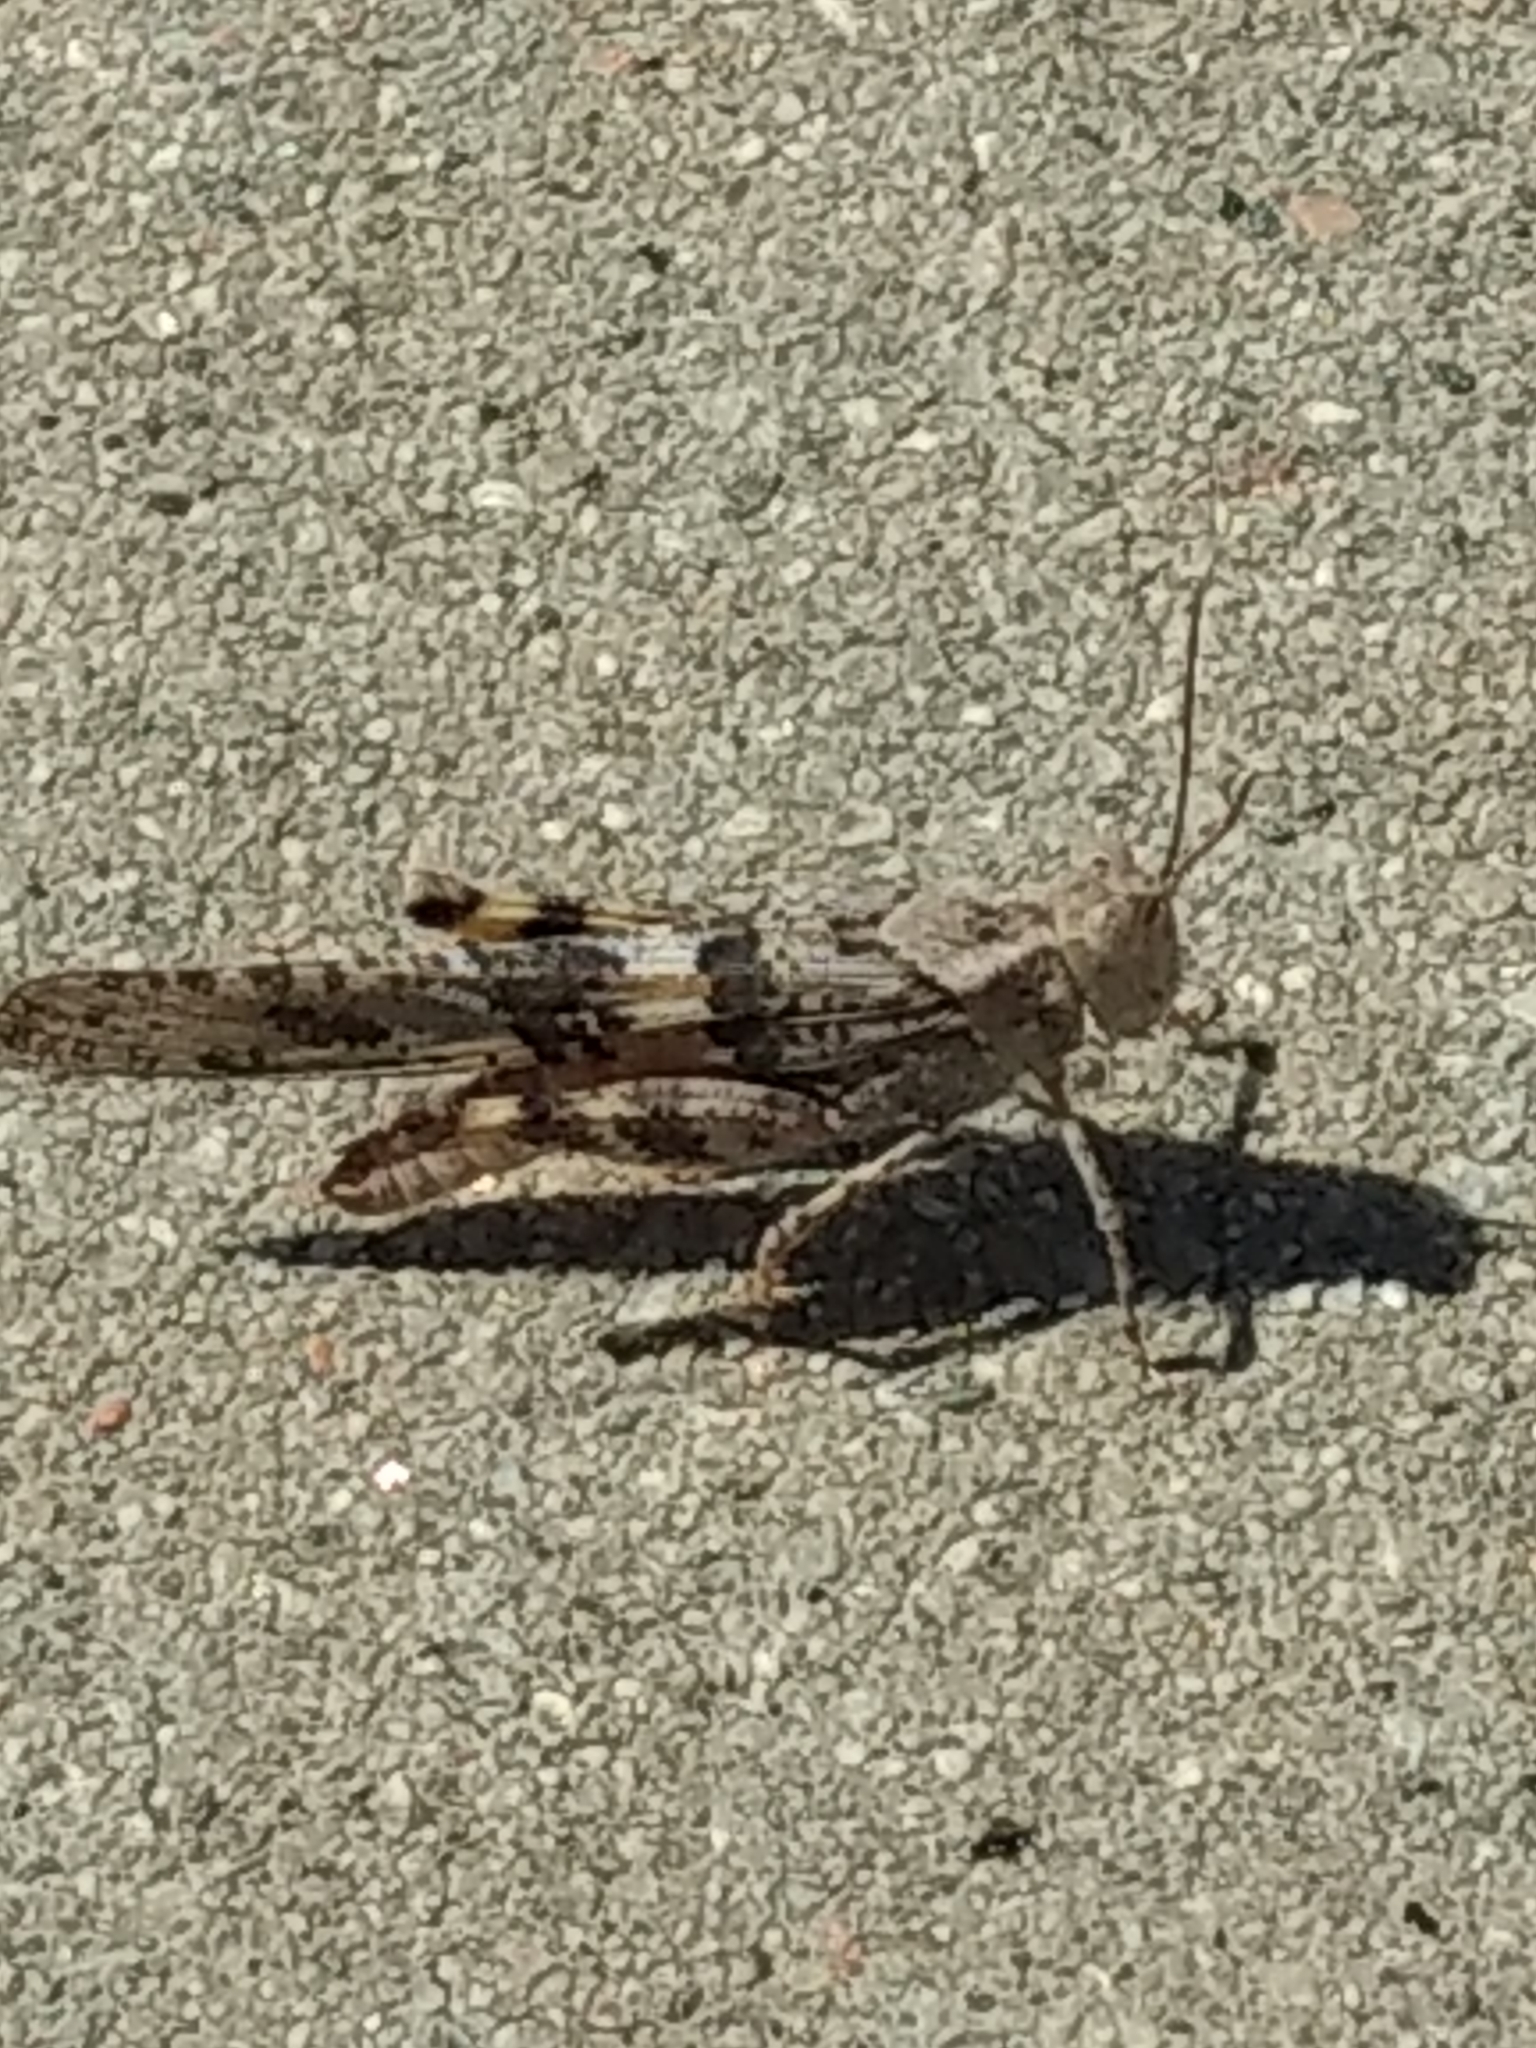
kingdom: Animalia
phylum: Arthropoda
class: Insecta
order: Orthoptera
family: Acrididae
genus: Trimerotropis
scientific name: Trimerotropis pallidipennis
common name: Pallid-winged grasshopper
